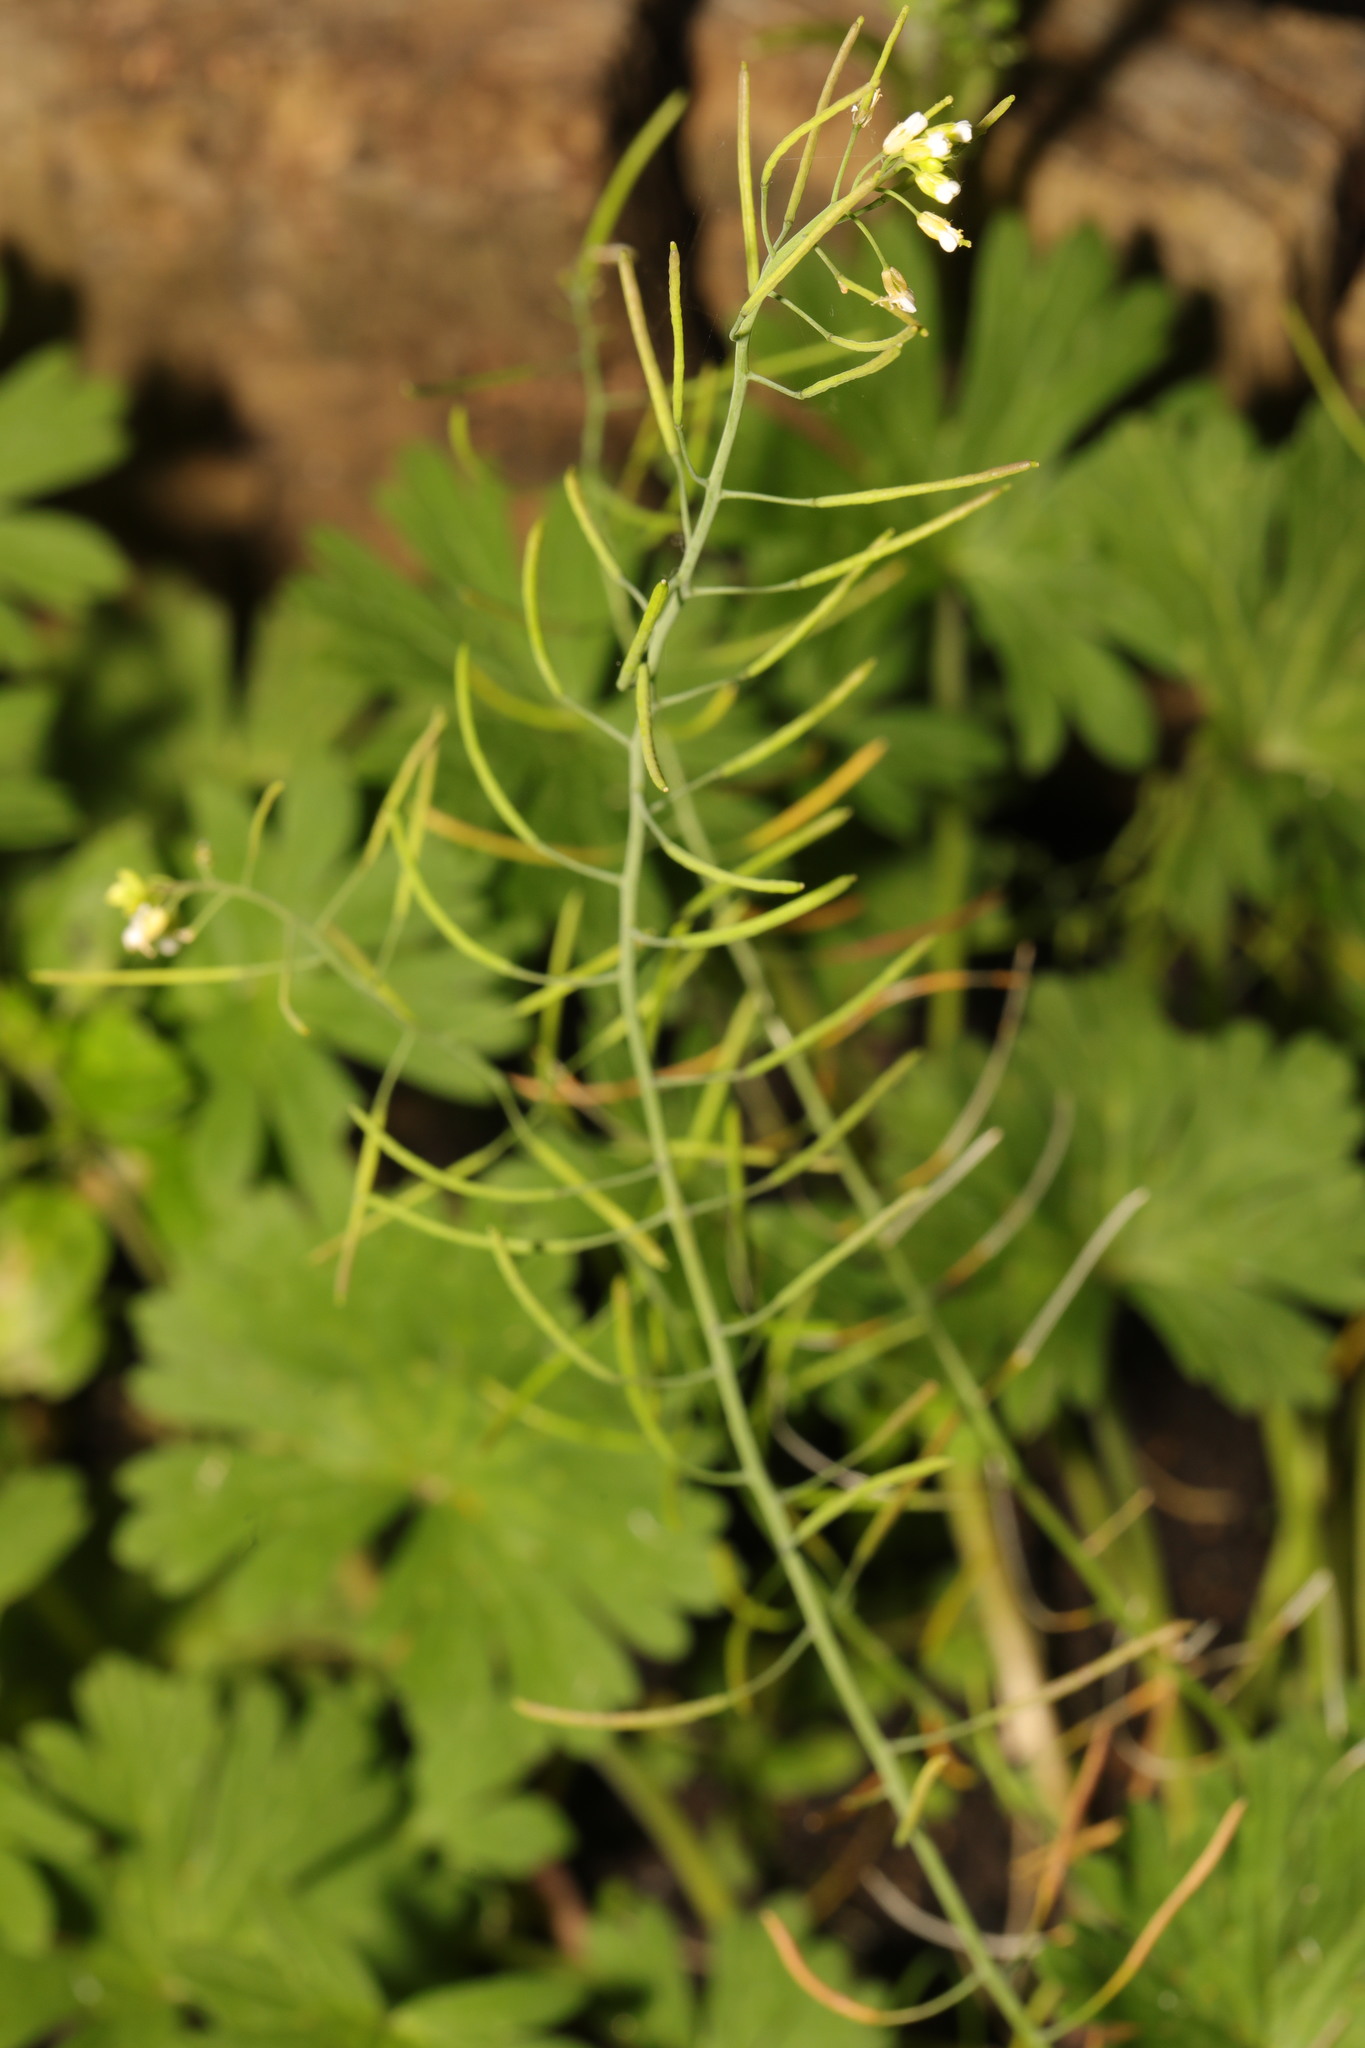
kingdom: Plantae
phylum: Tracheophyta
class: Magnoliopsida
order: Brassicales
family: Brassicaceae
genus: Arabidopsis
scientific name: Arabidopsis thaliana
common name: Thale cress
